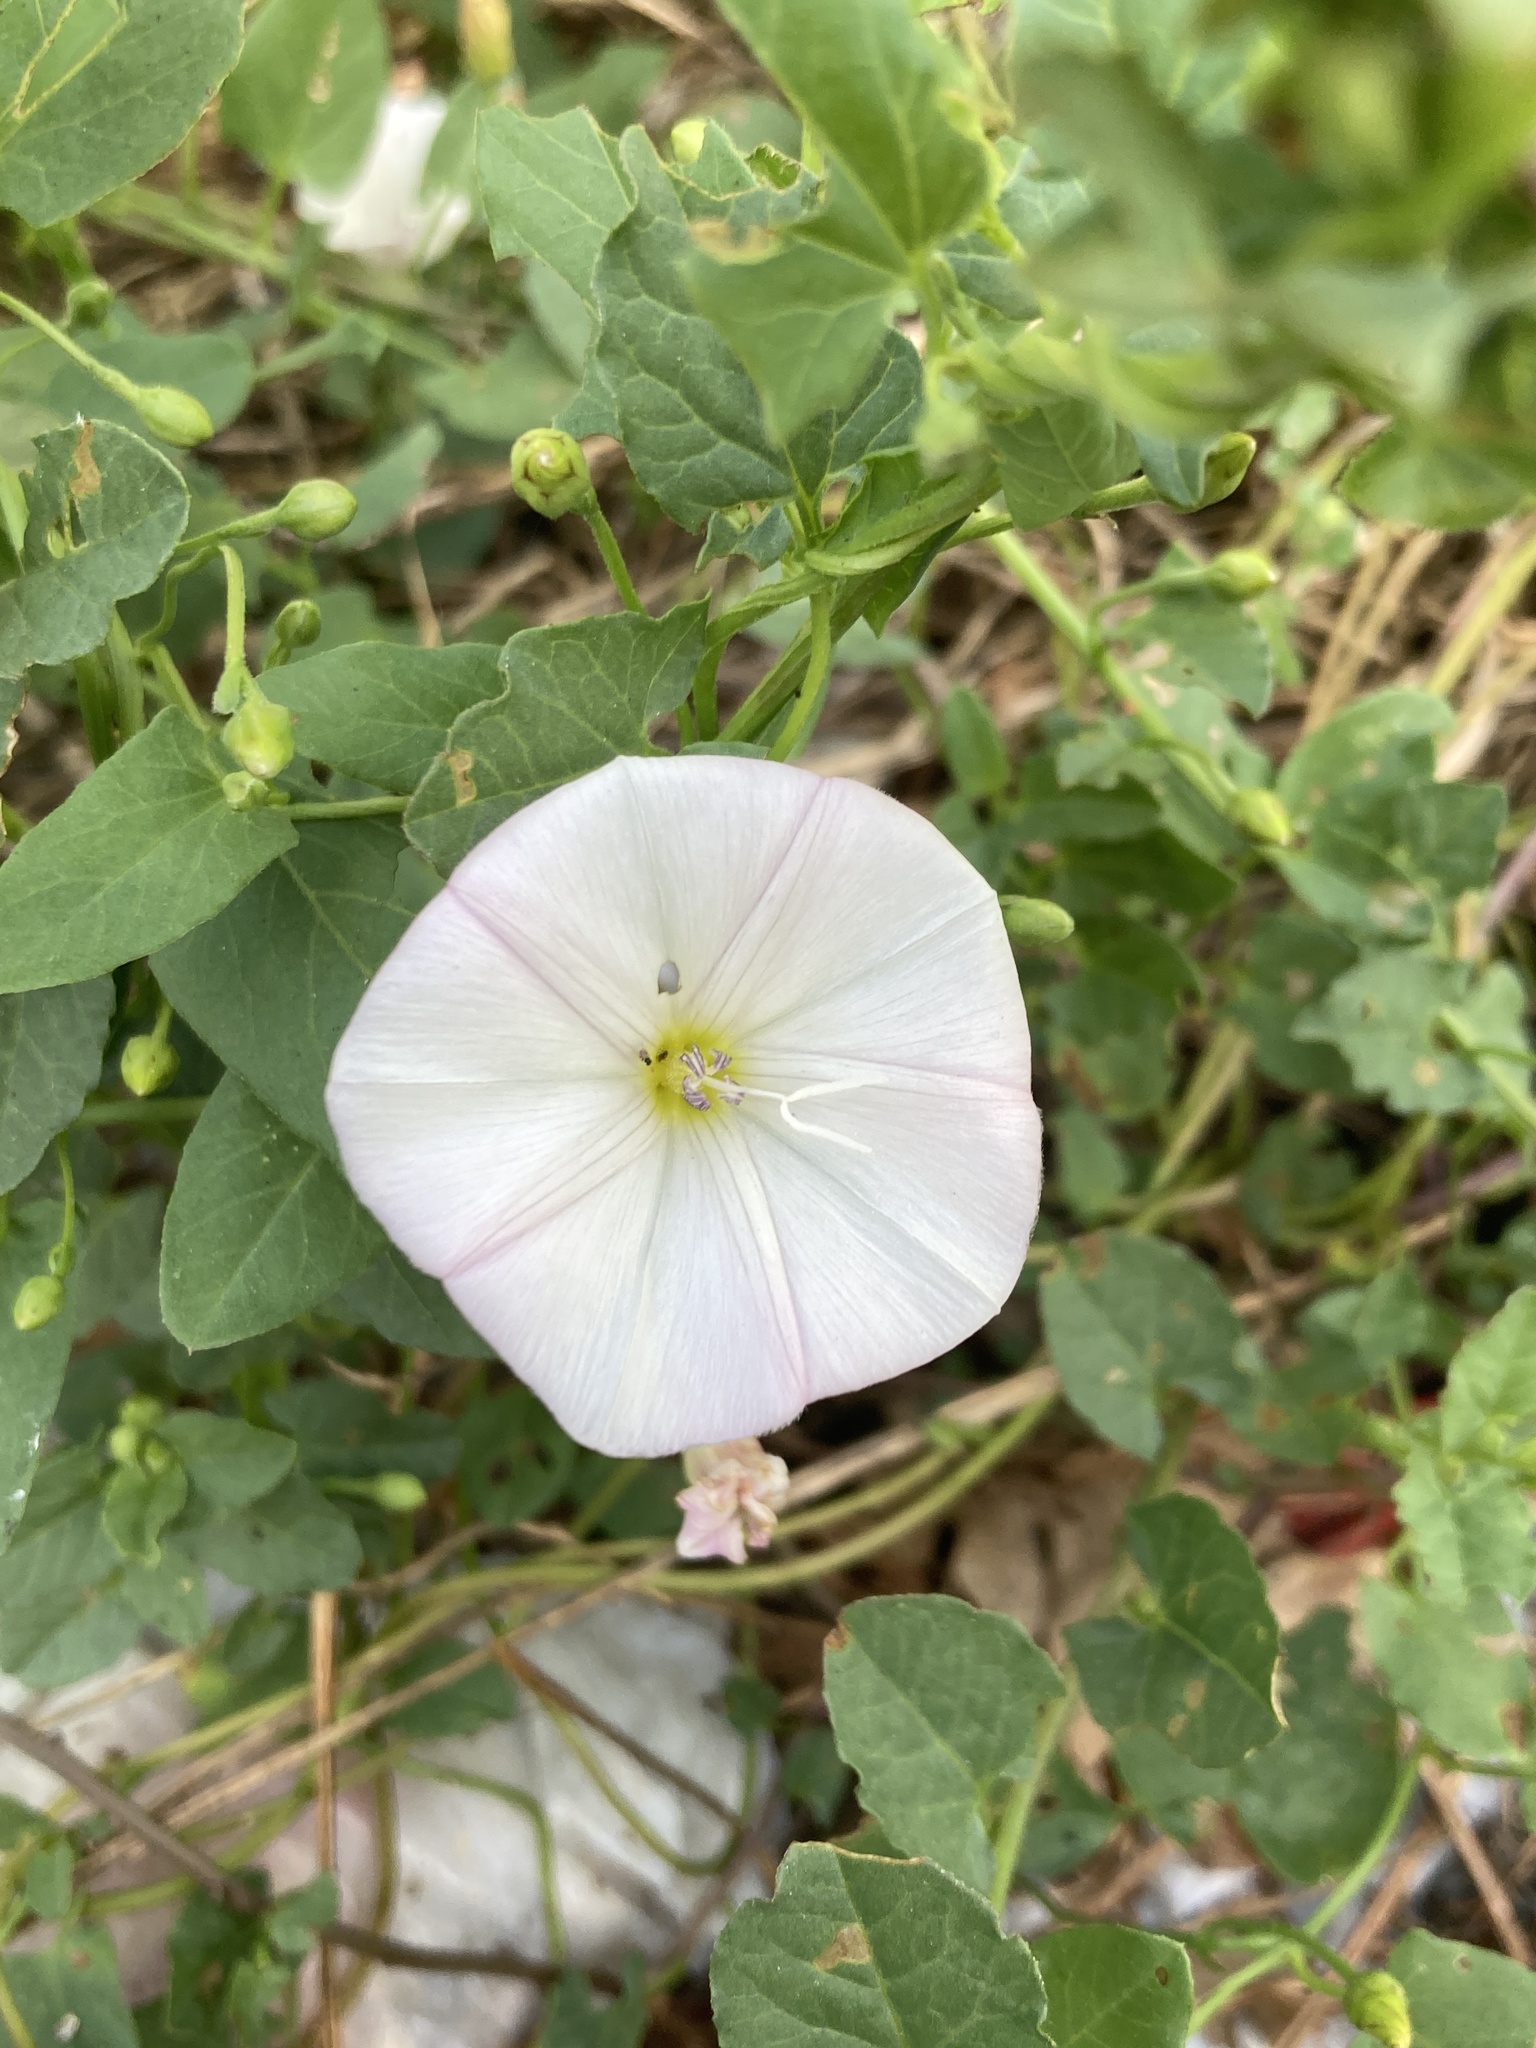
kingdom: Plantae
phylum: Tracheophyta
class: Magnoliopsida
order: Solanales
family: Convolvulaceae
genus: Convolvulus
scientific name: Convolvulus arvensis
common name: Field bindweed
